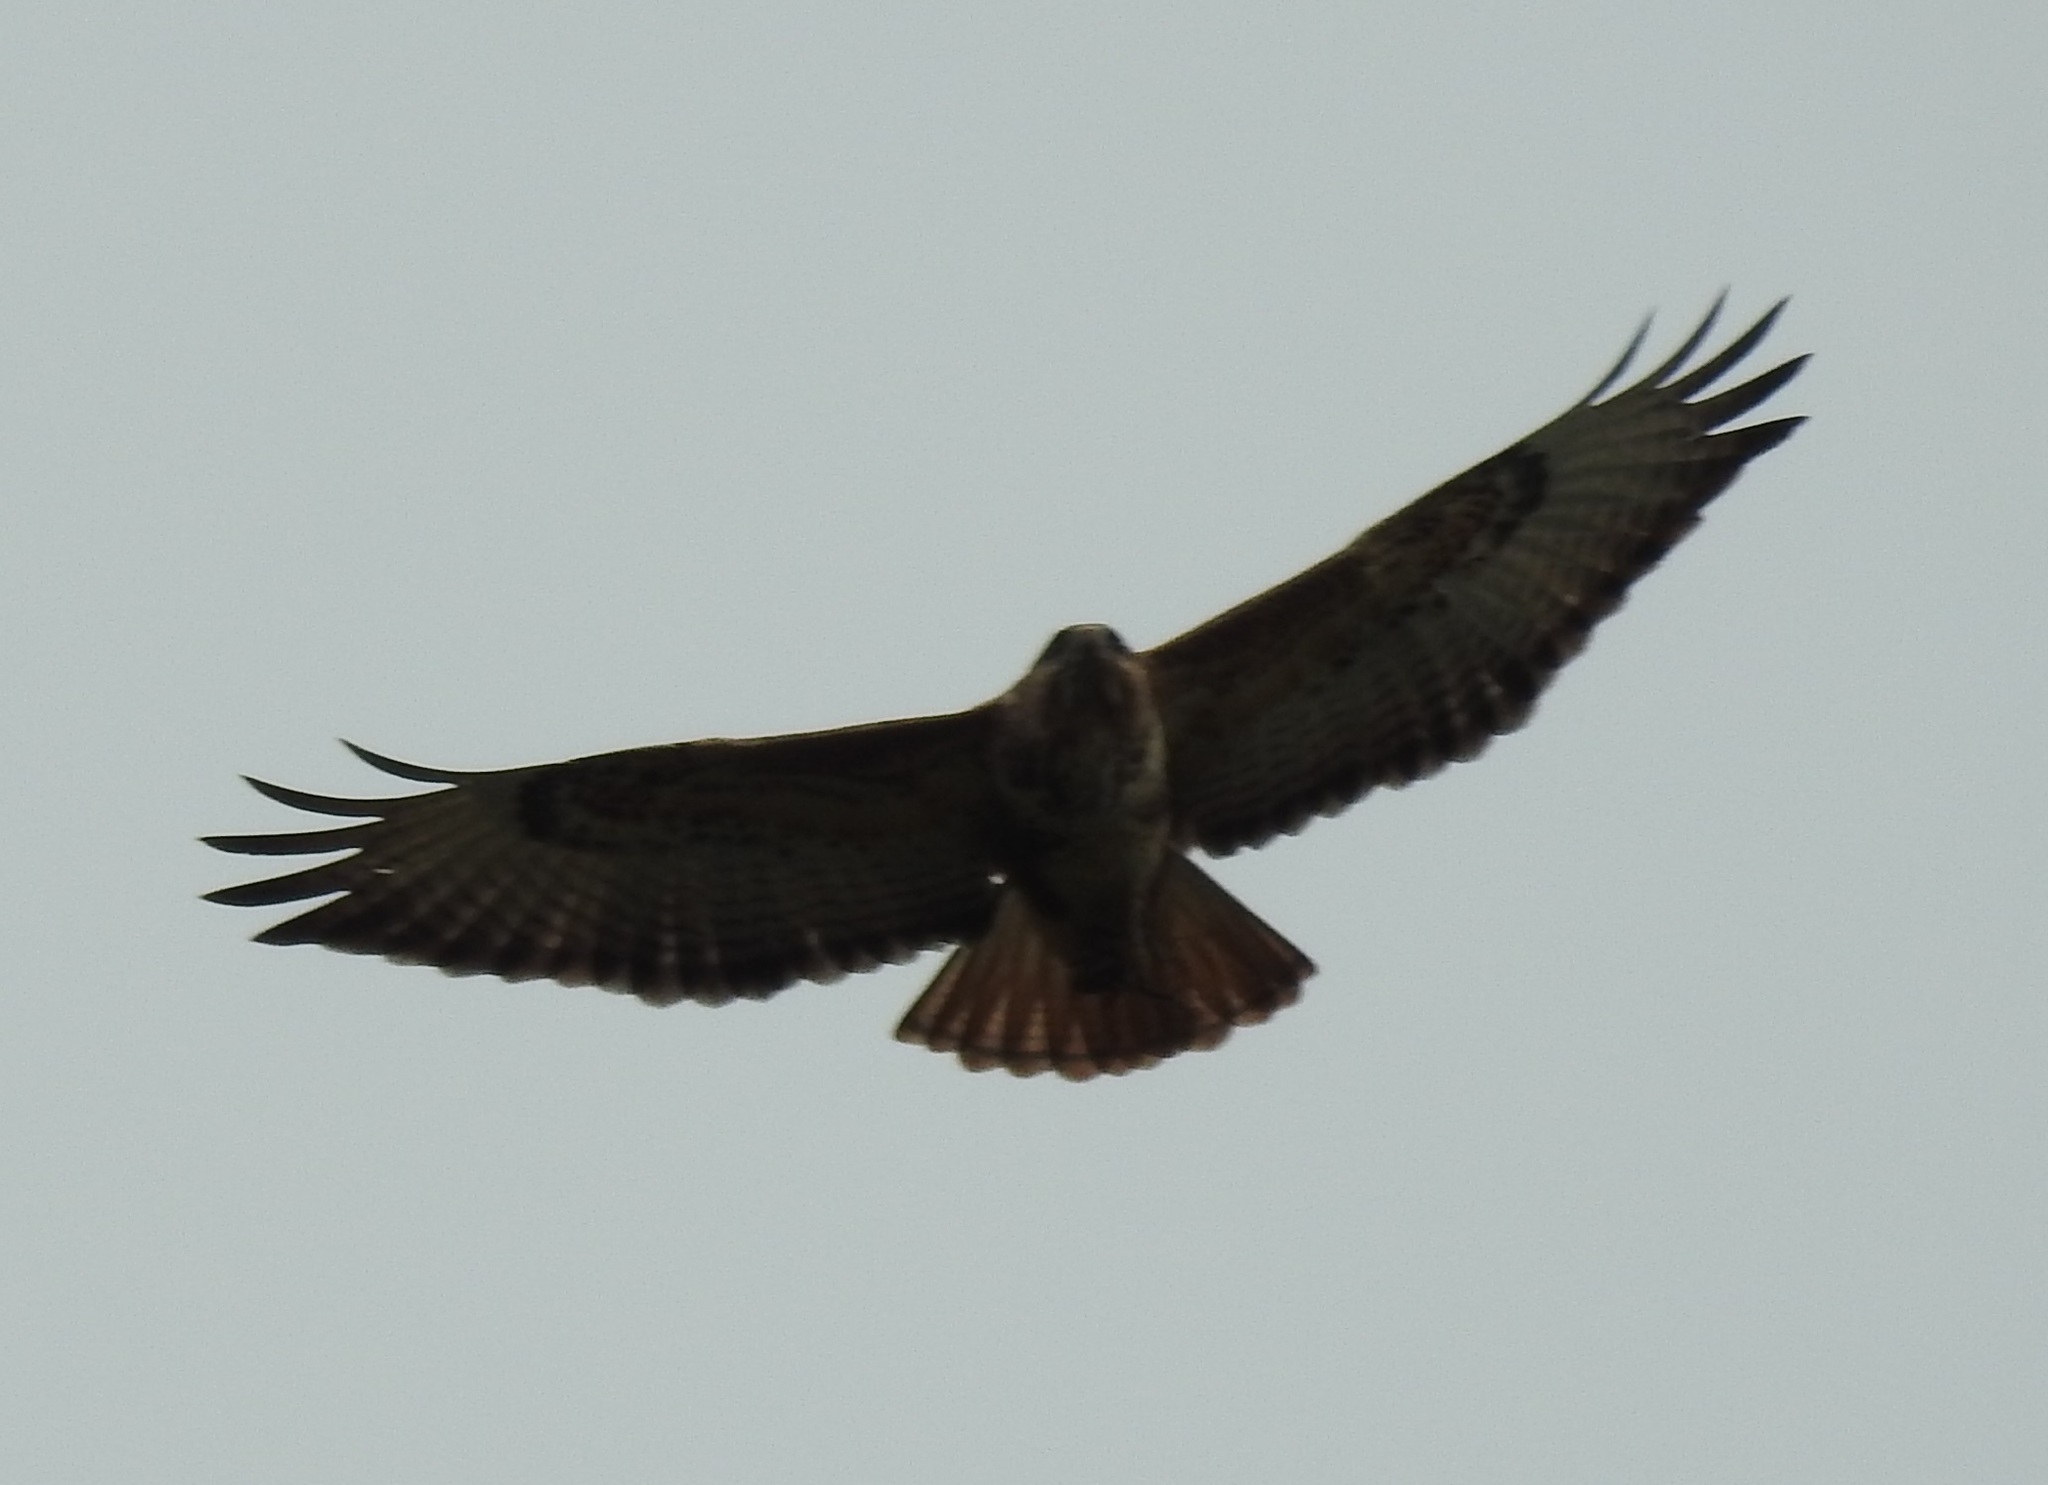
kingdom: Animalia
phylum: Chordata
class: Aves
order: Accipitriformes
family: Accipitridae
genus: Buteo
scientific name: Buteo rufinus
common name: Long-legged buzzard
